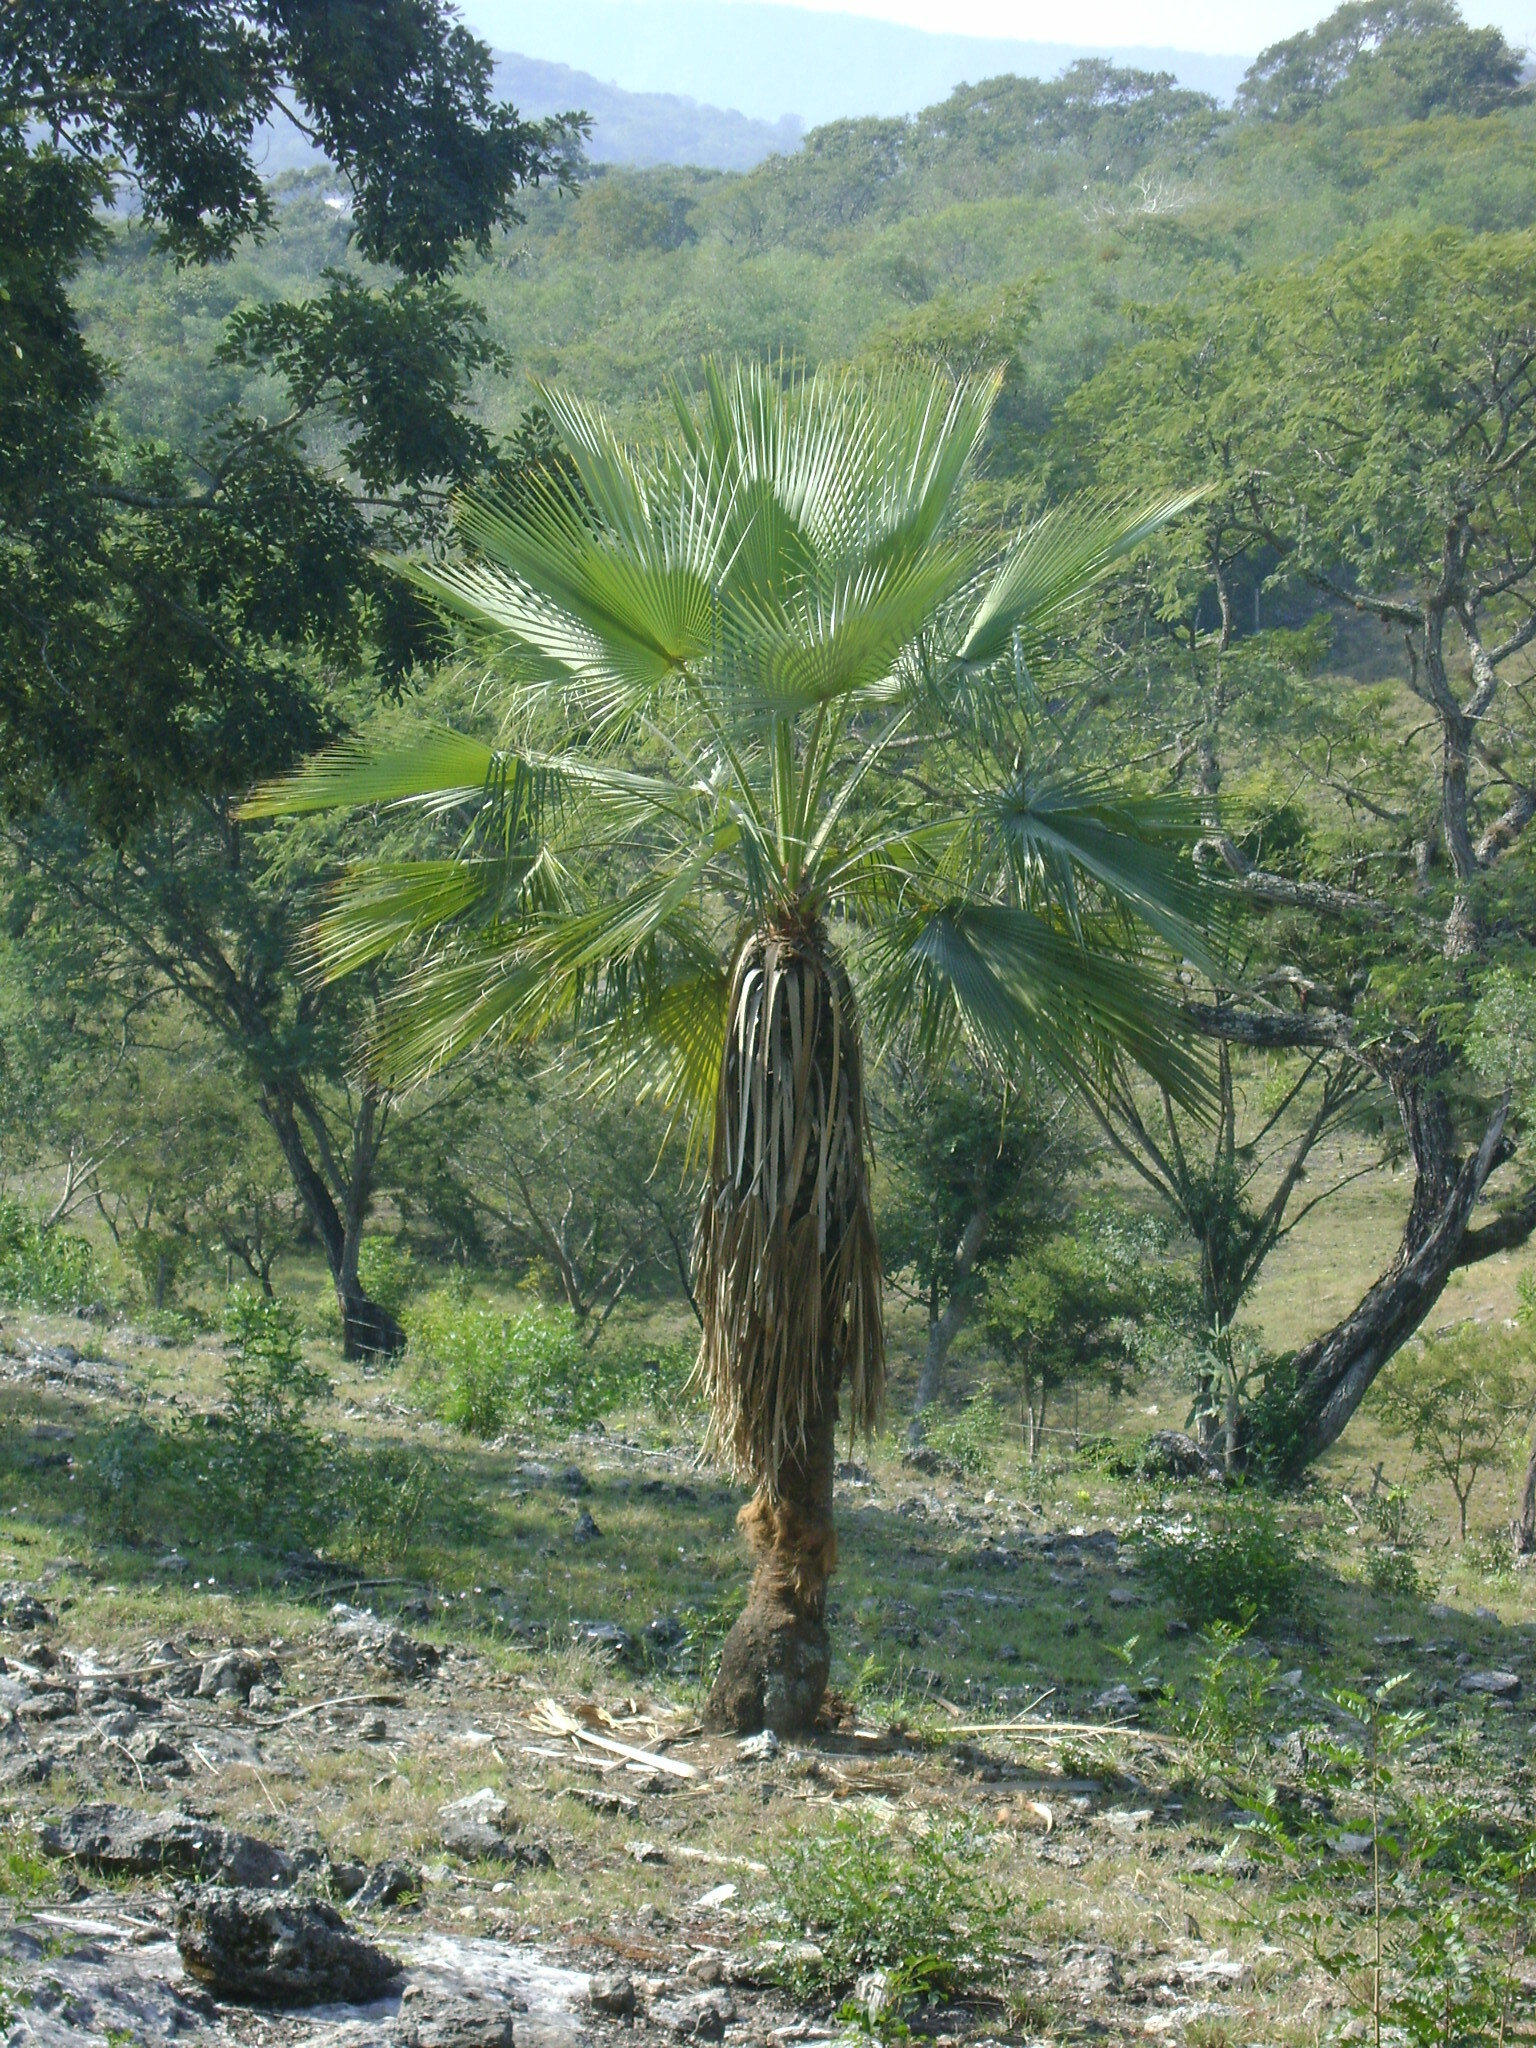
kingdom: Plantae
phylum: Tracheophyta
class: Liliopsida
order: Arecales
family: Arecaceae
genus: Brahea
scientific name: Brahea dulcis
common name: Apak palm
